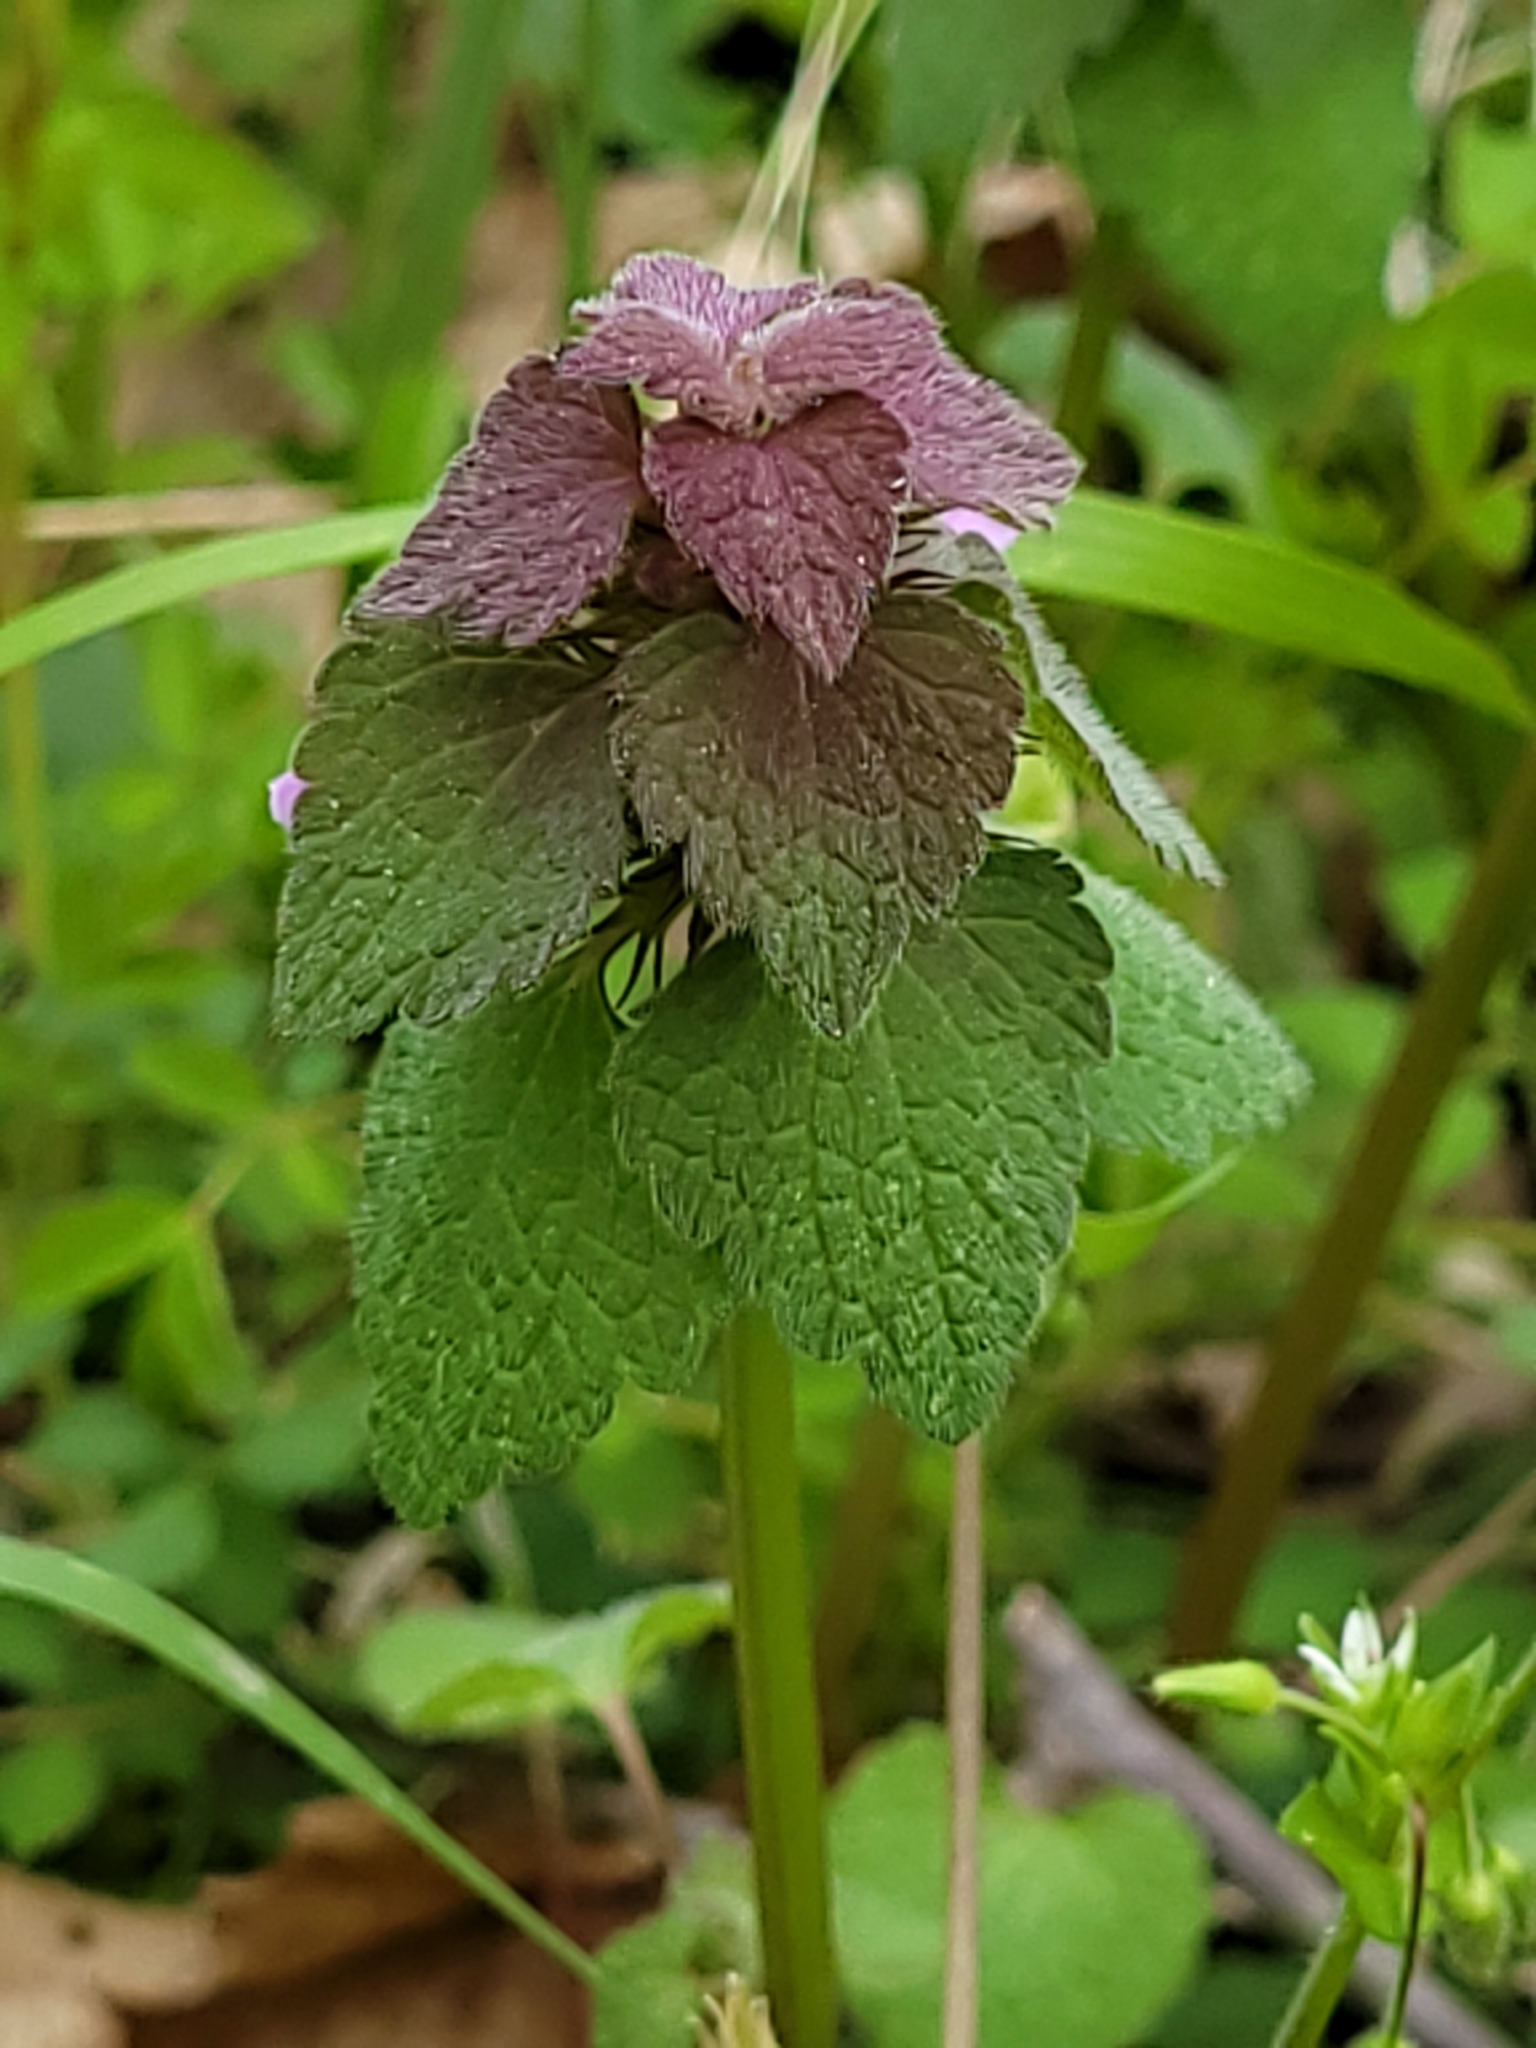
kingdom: Plantae
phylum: Tracheophyta
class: Magnoliopsida
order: Lamiales
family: Lamiaceae
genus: Lamium
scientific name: Lamium purpureum
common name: Red dead-nettle
